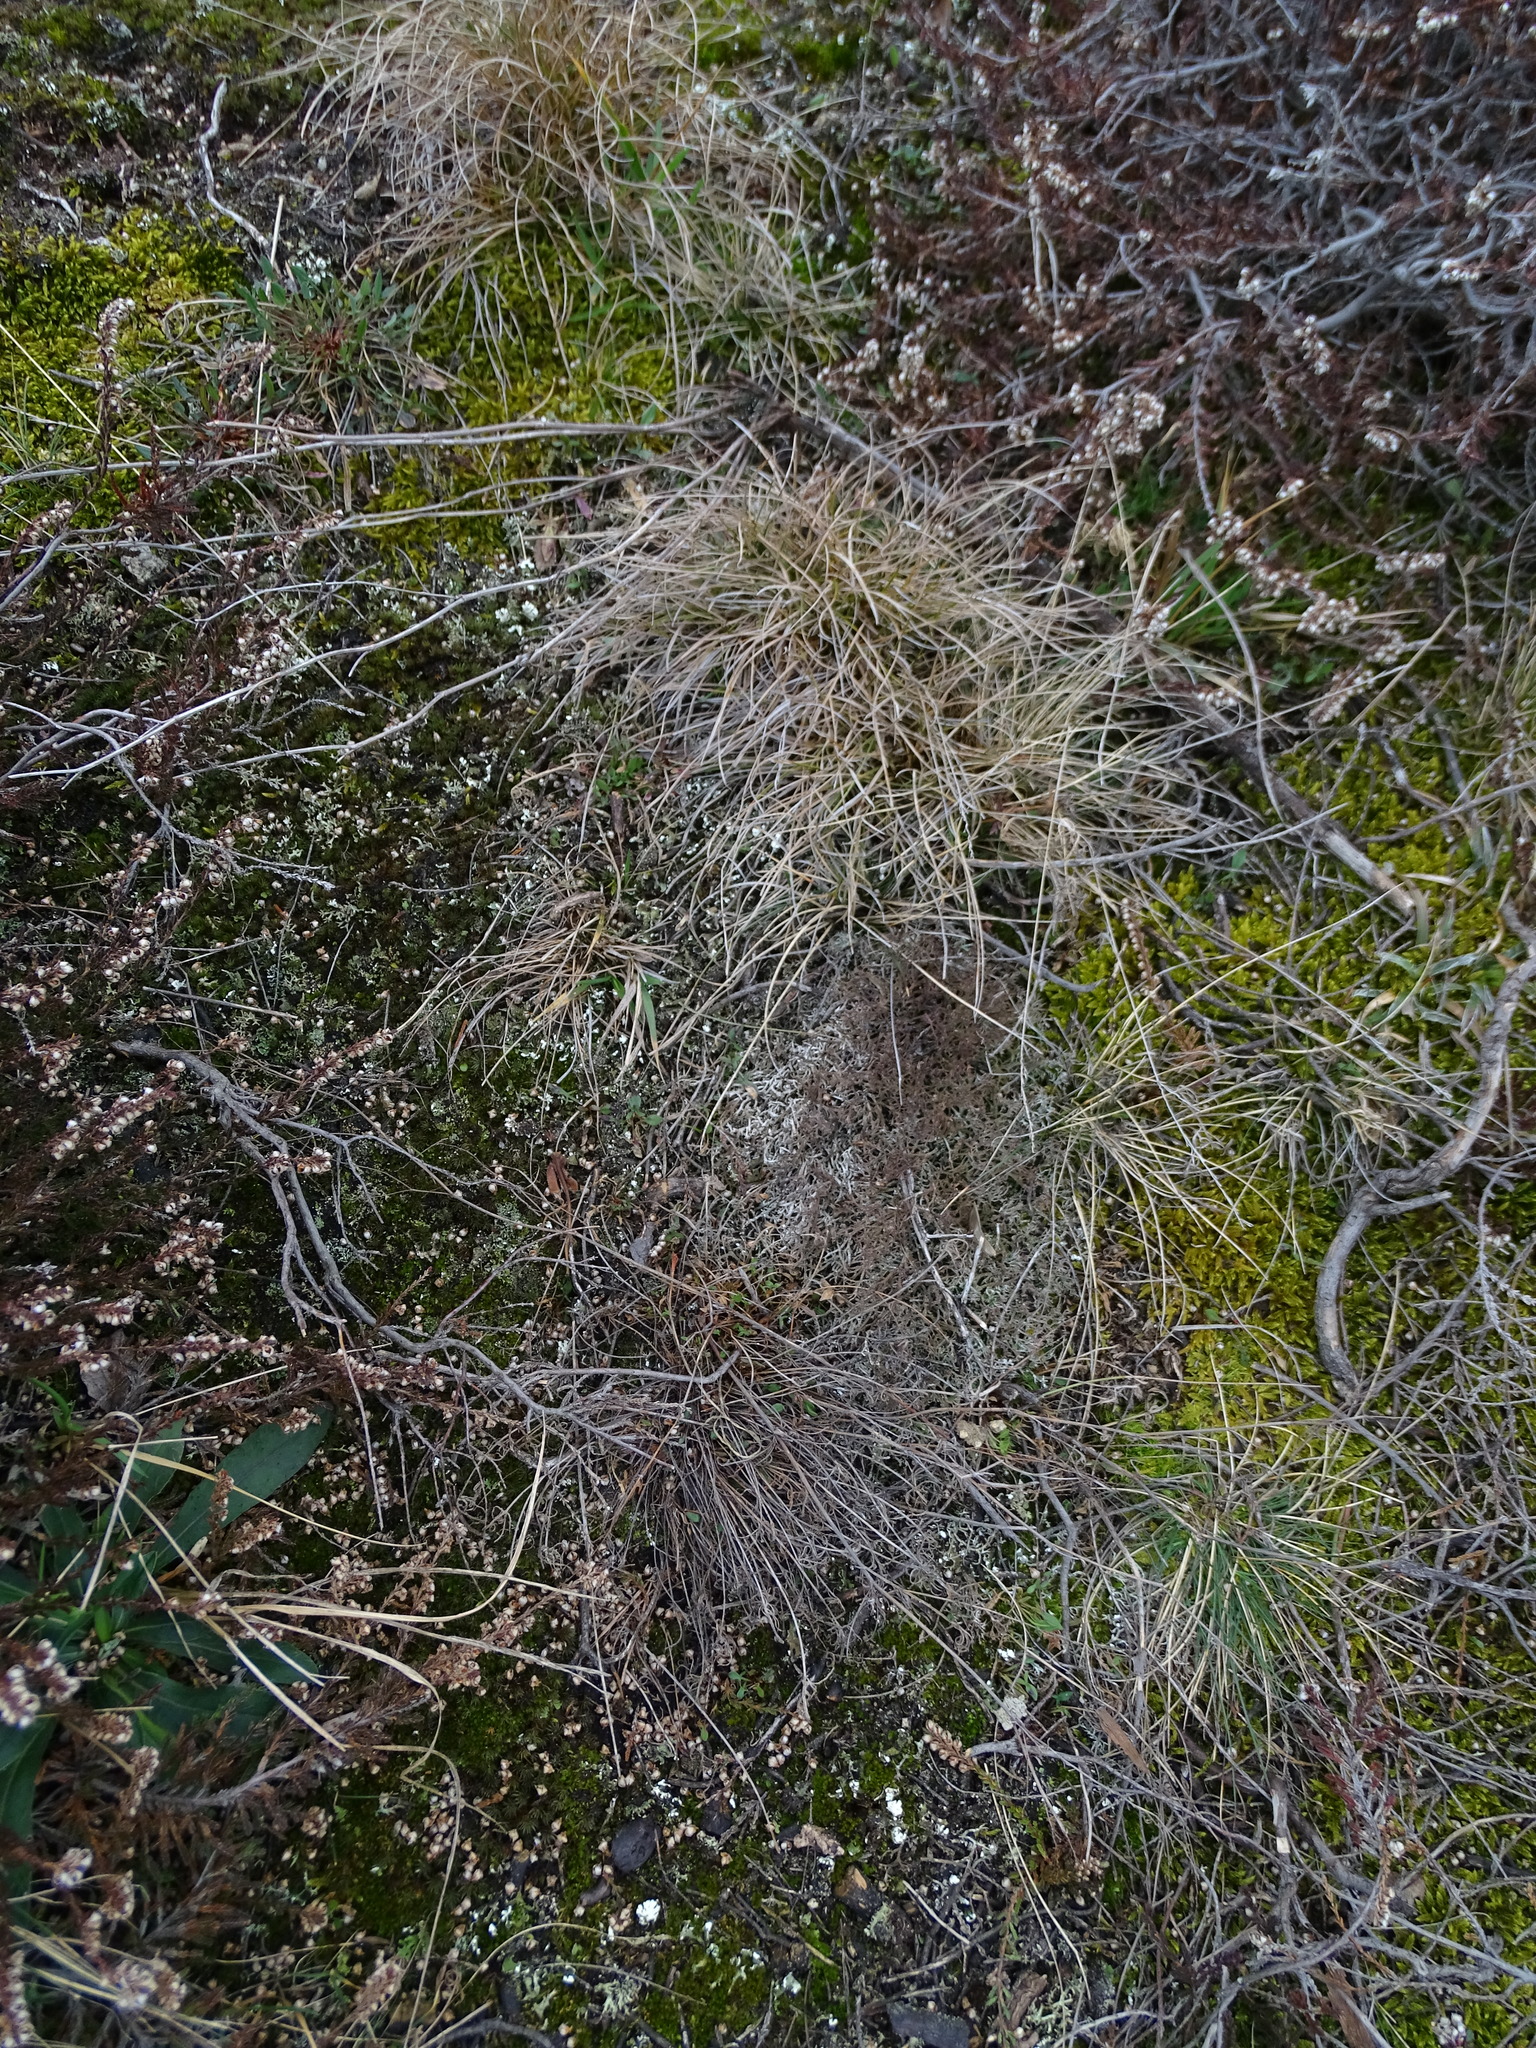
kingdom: Fungi
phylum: Ascomycota
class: Lecanoromycetes
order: Lecanorales
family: Cladoniaceae
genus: Cladonia
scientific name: Cladonia furcata
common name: Many-forked cladonia
